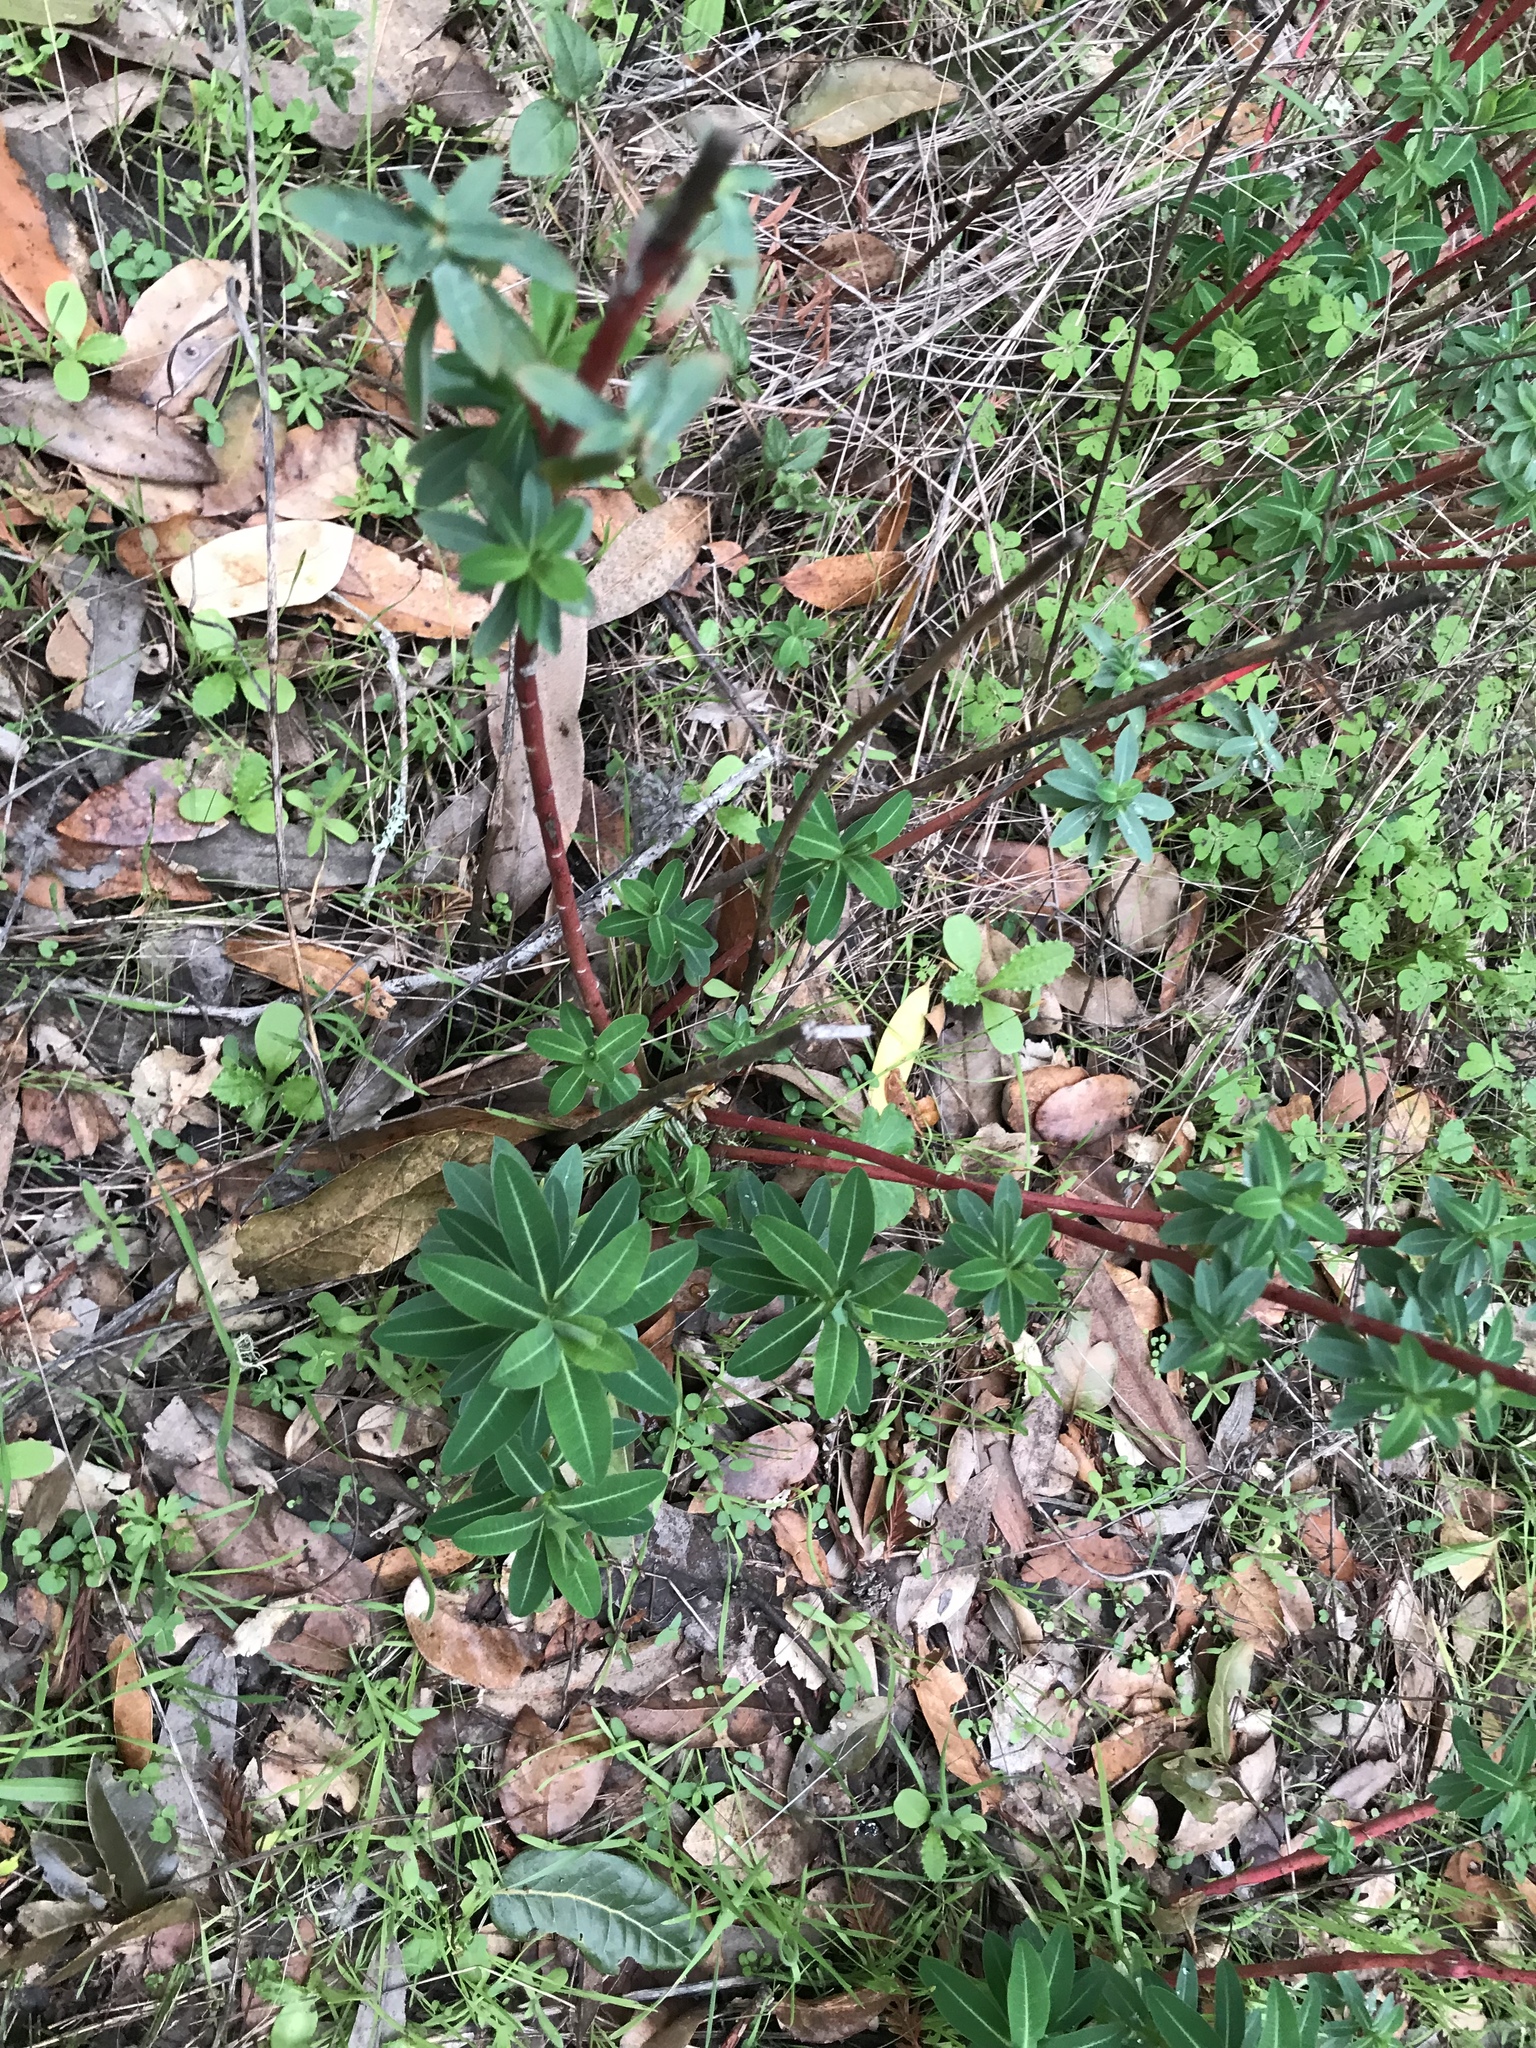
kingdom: Plantae
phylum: Tracheophyta
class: Magnoliopsida
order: Malpighiales
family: Euphorbiaceae
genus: Euphorbia
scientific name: Euphorbia oblongata
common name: Balkan spurge
